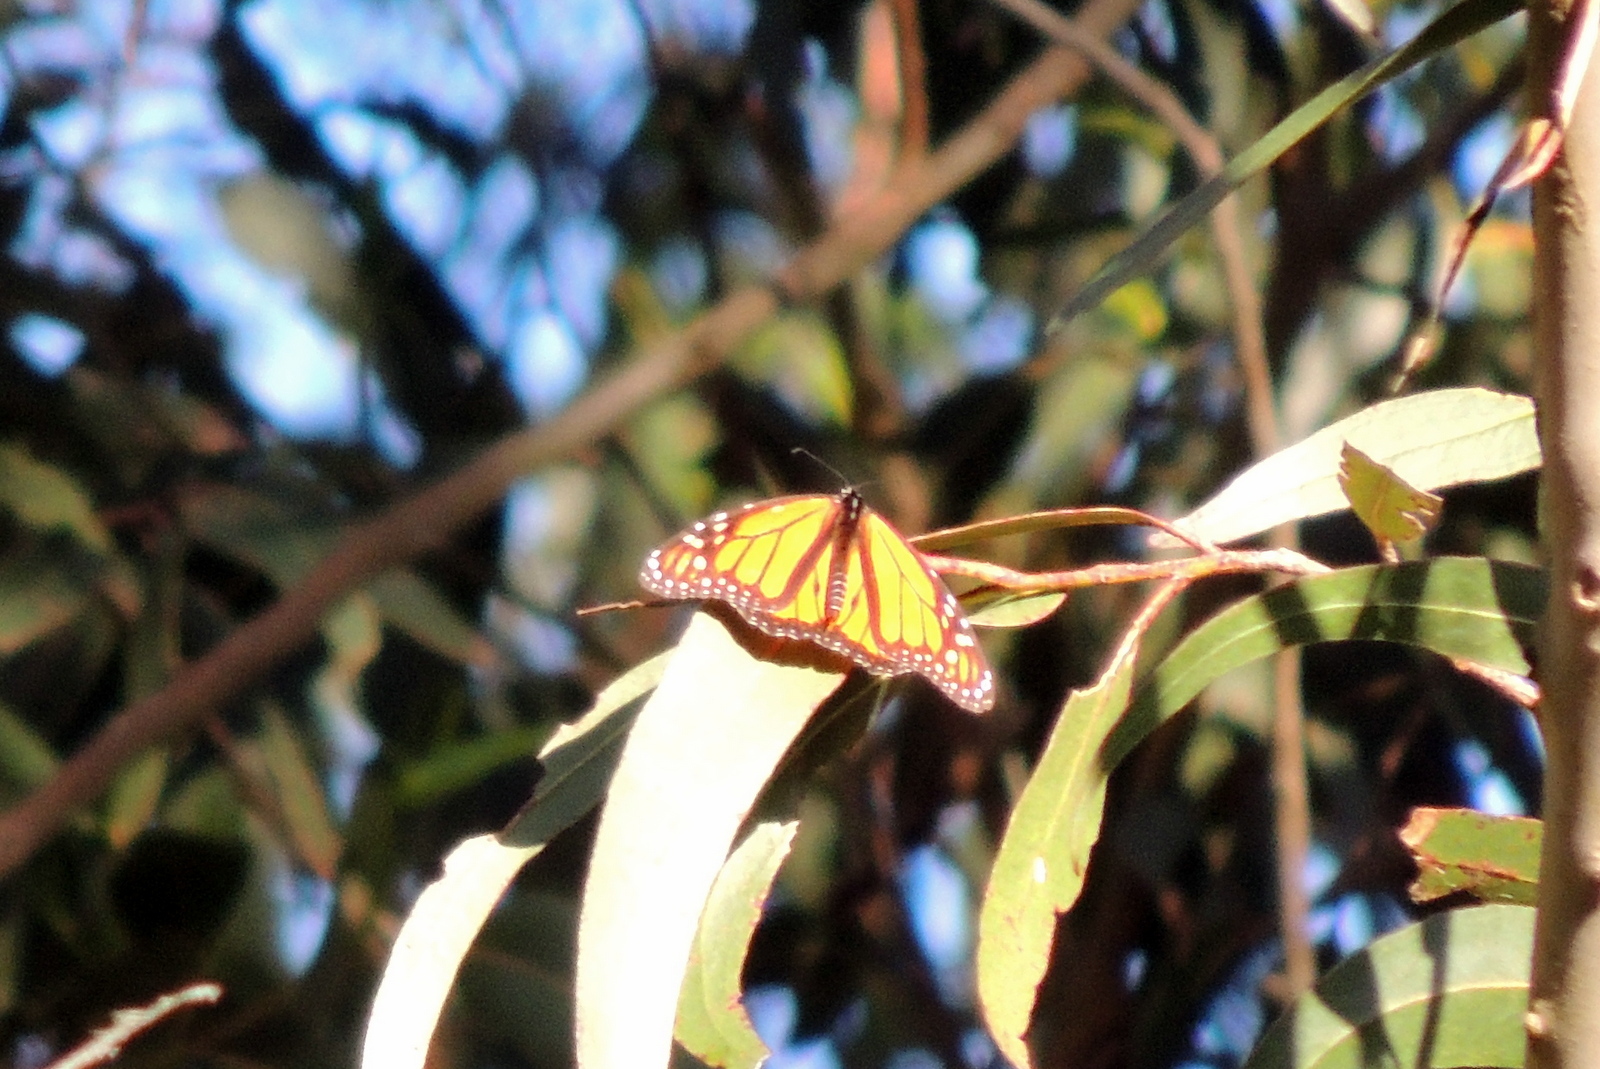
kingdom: Animalia
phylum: Arthropoda
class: Insecta
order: Lepidoptera
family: Nymphalidae
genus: Danaus
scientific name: Danaus plexippus
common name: Monarch
